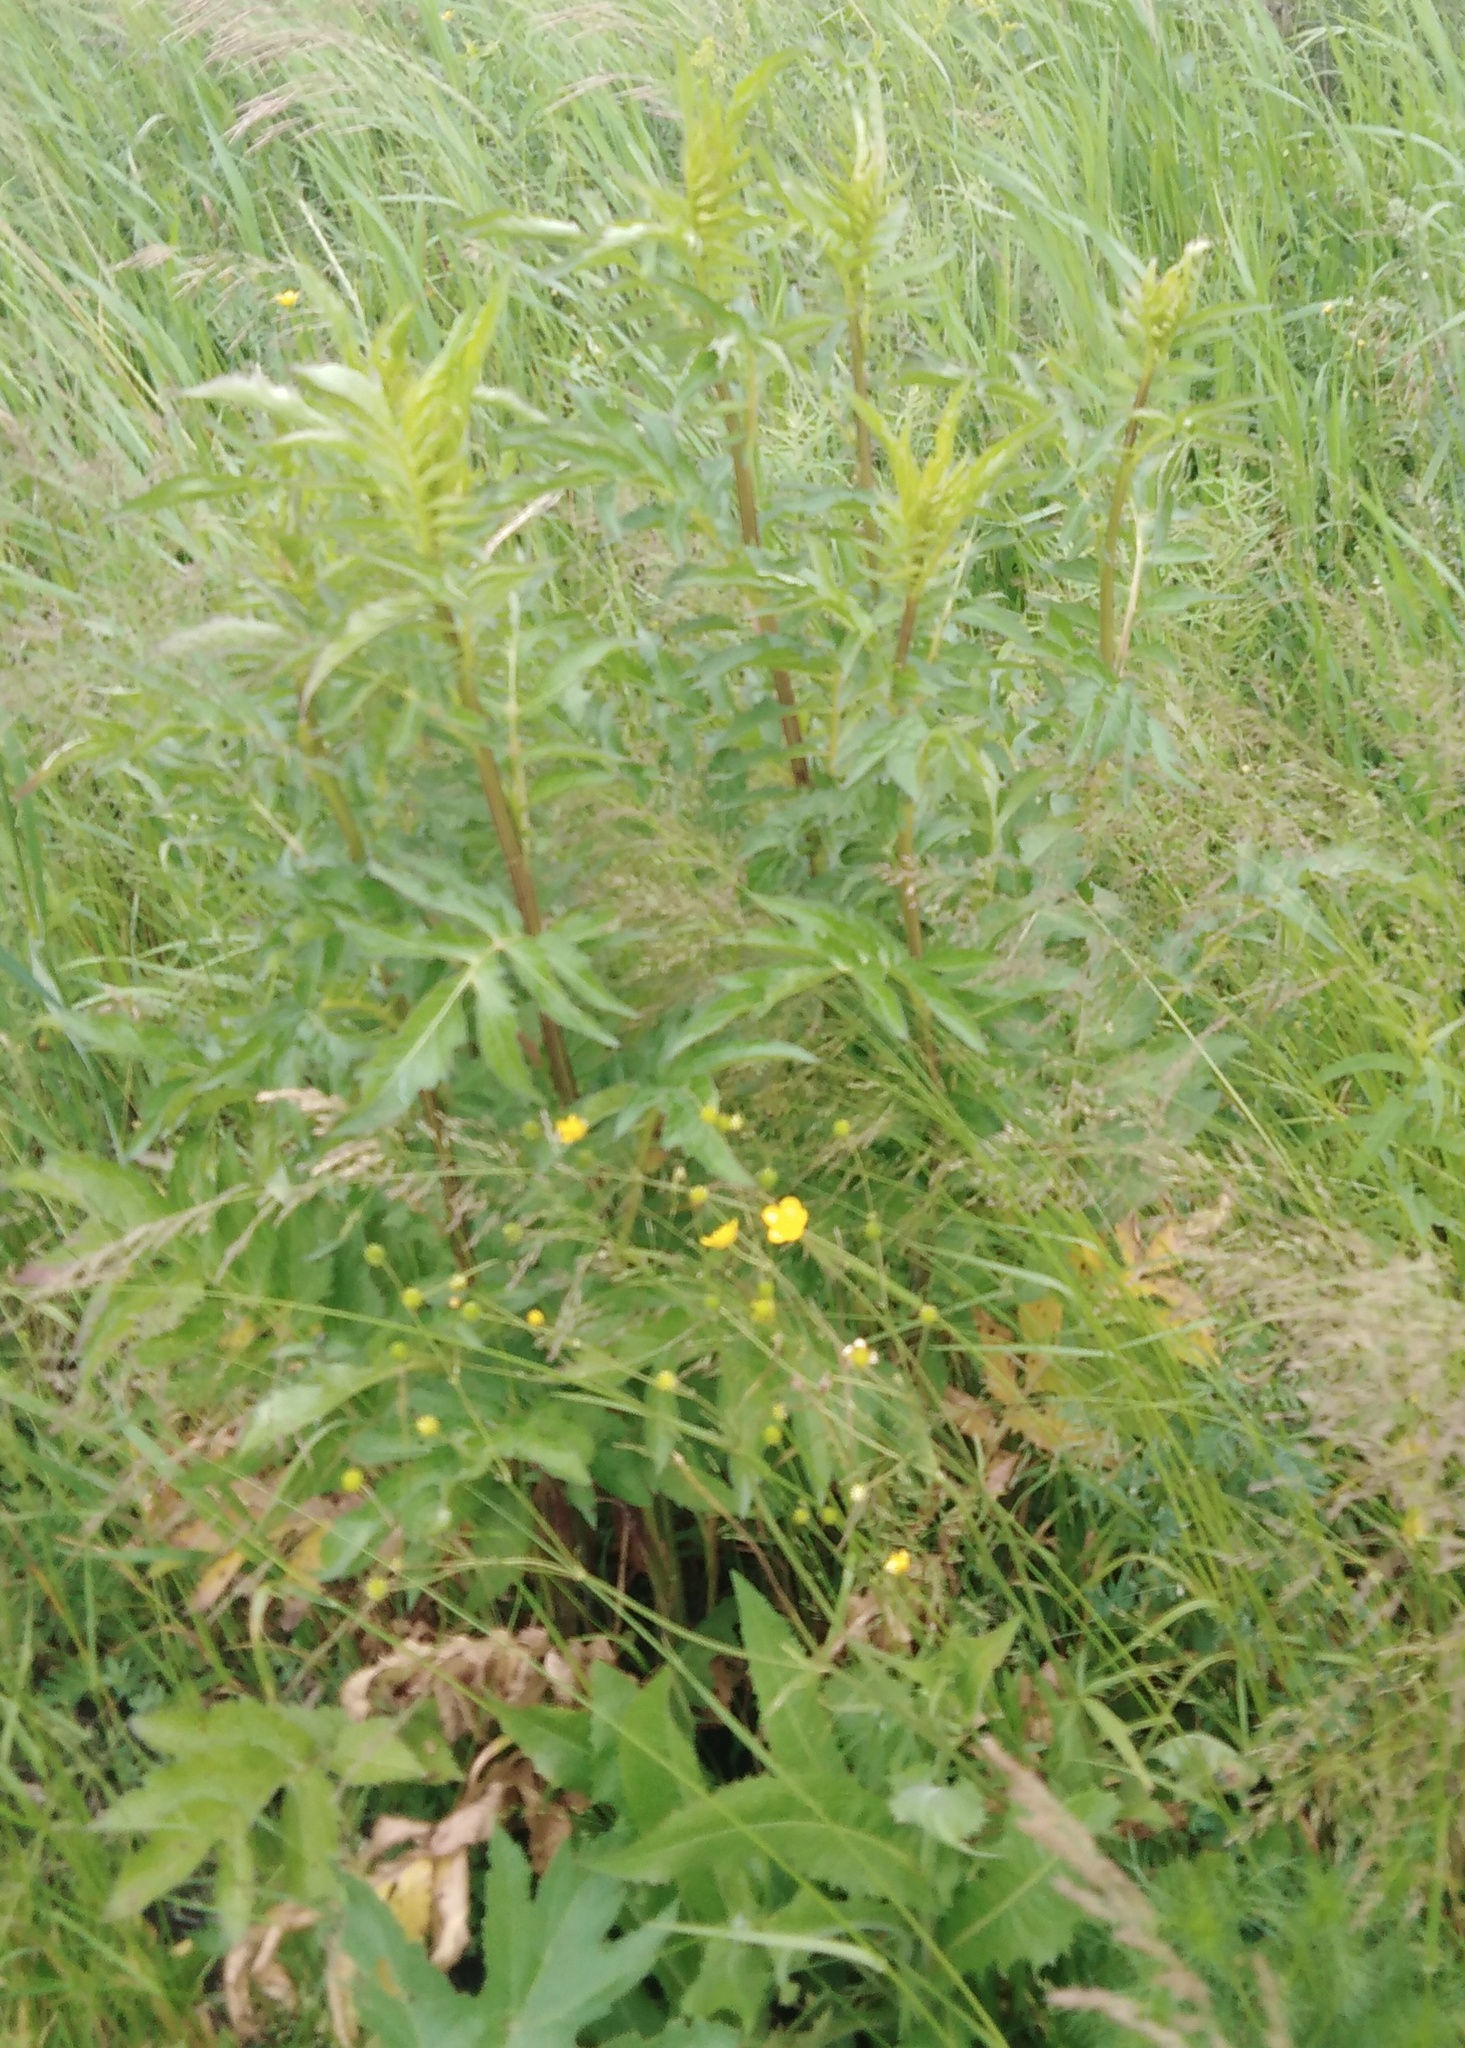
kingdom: Plantae
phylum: Tracheophyta
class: Magnoliopsida
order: Asterales
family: Asteraceae
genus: Serratula
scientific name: Serratula coronata
